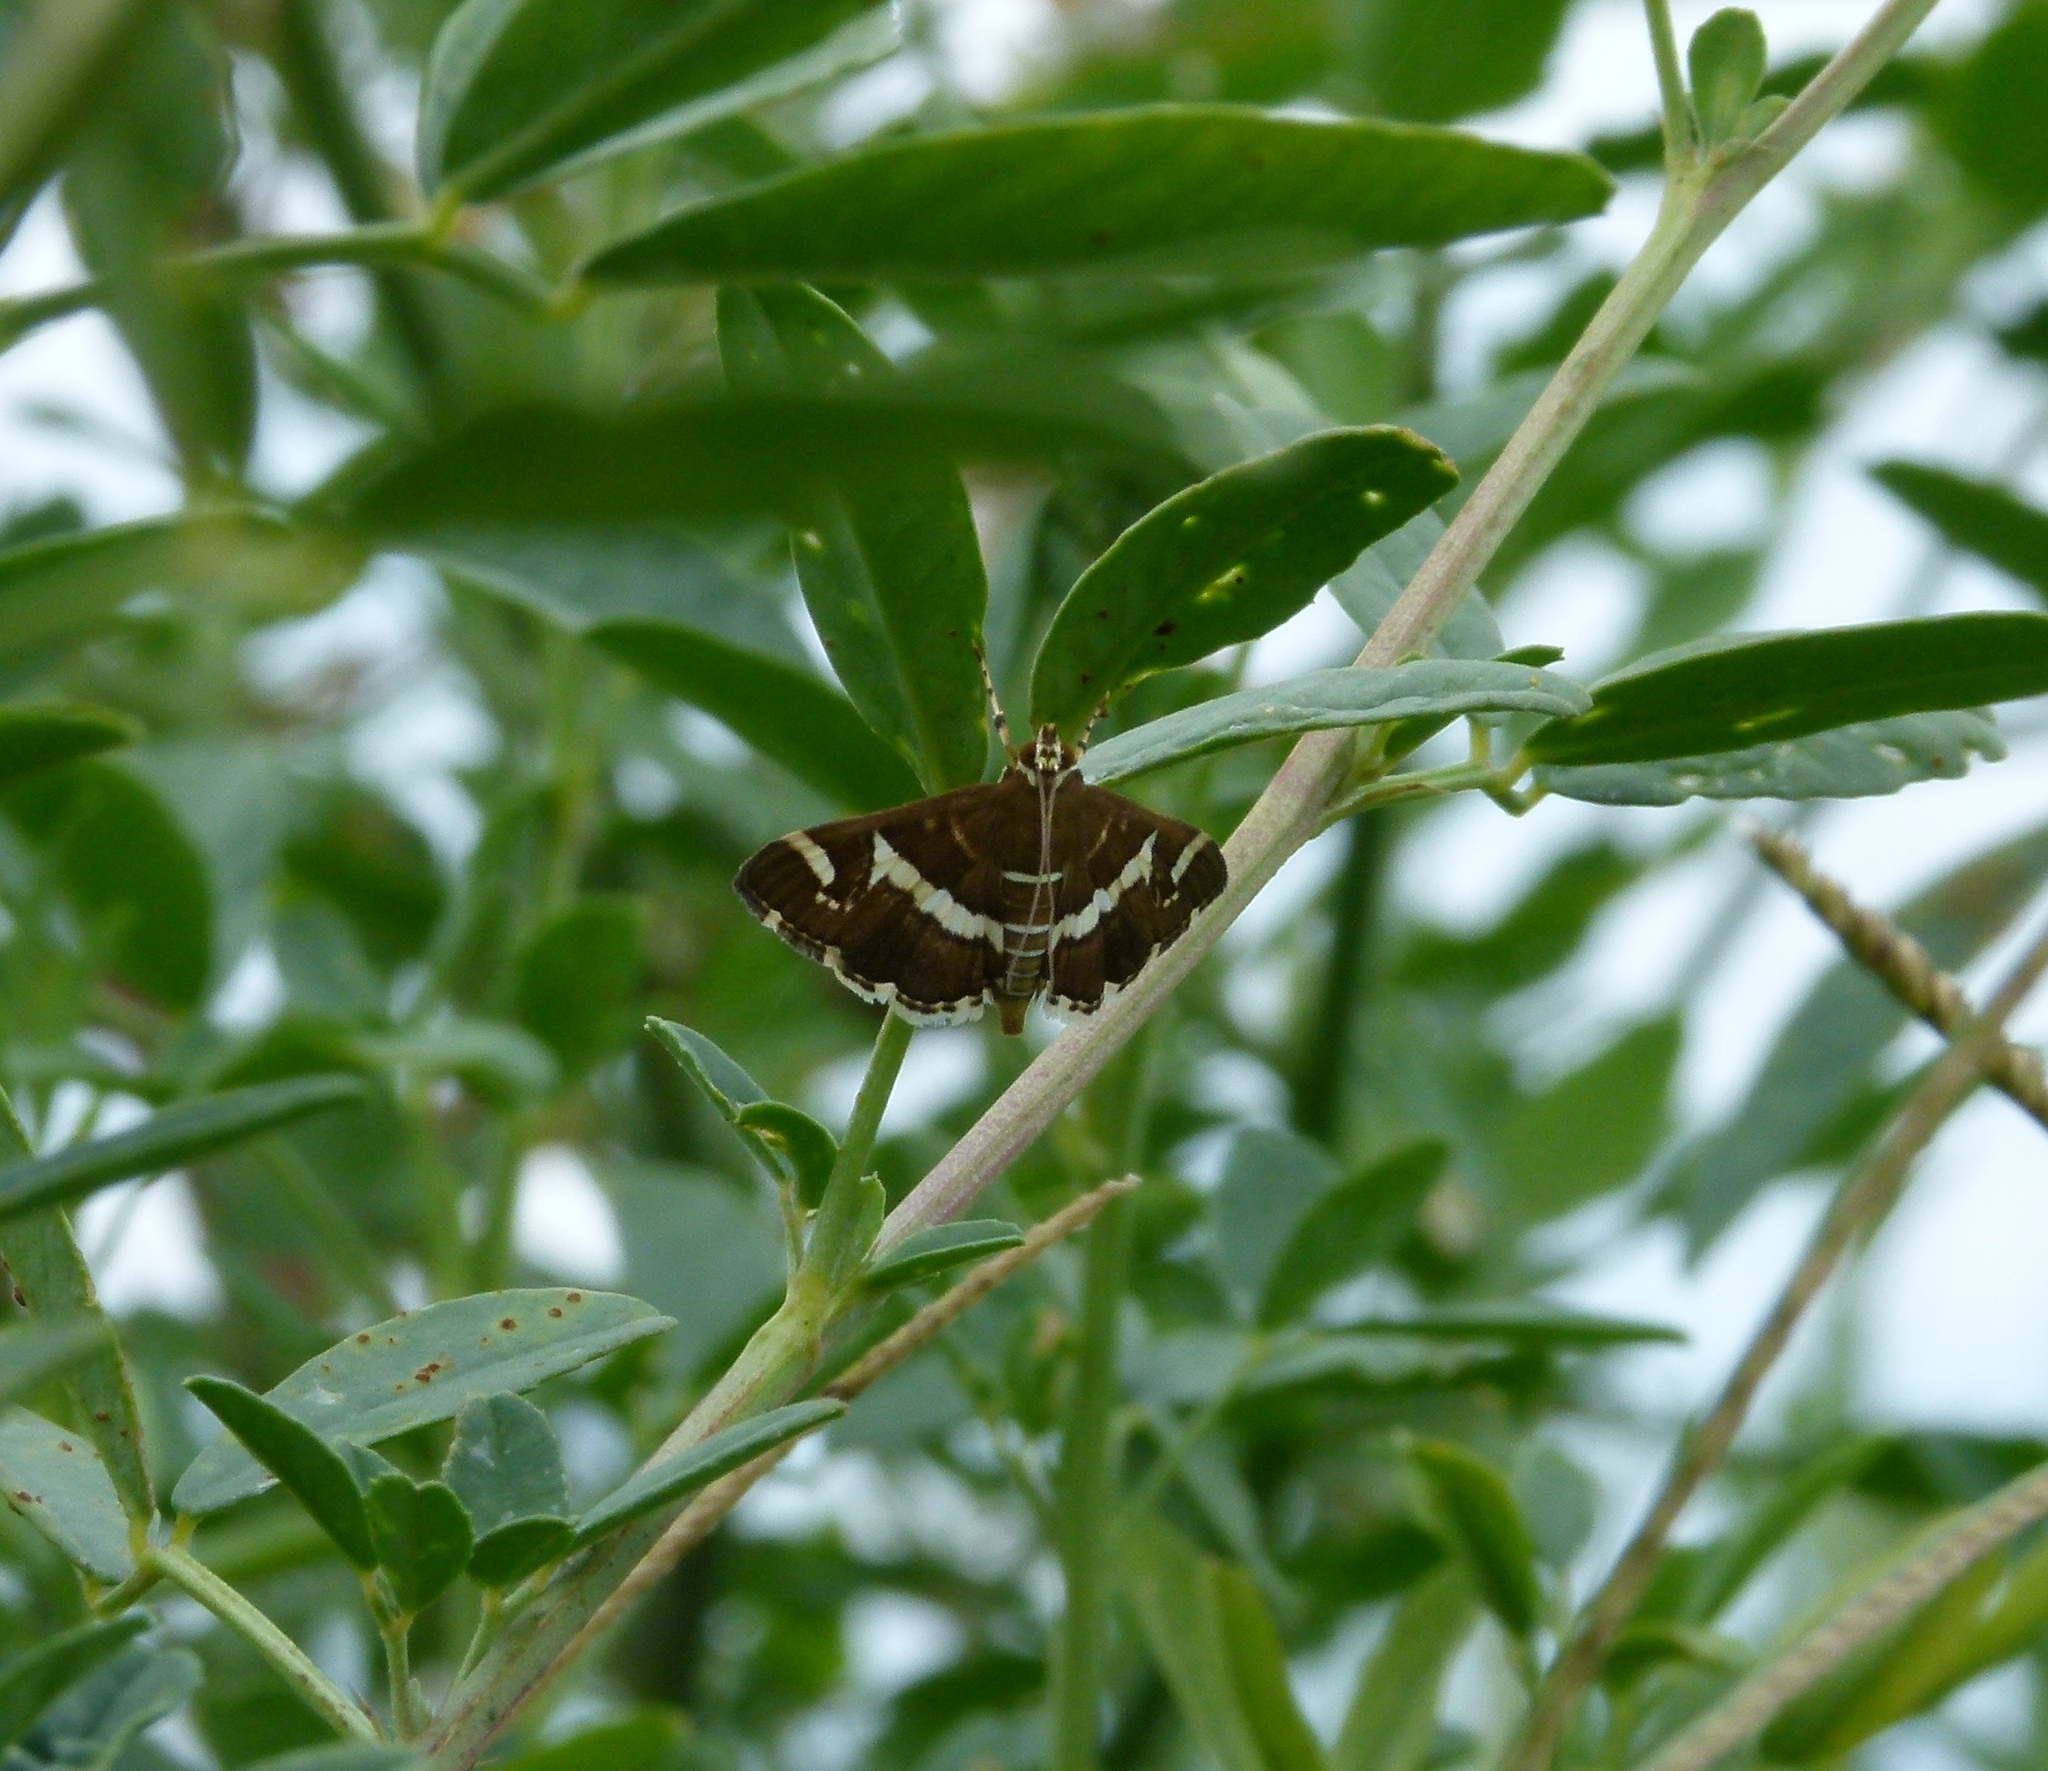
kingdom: Animalia
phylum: Arthropoda
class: Insecta
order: Lepidoptera
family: Crambidae
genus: Spoladea
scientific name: Spoladea recurvalis
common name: Beet webworm moth
